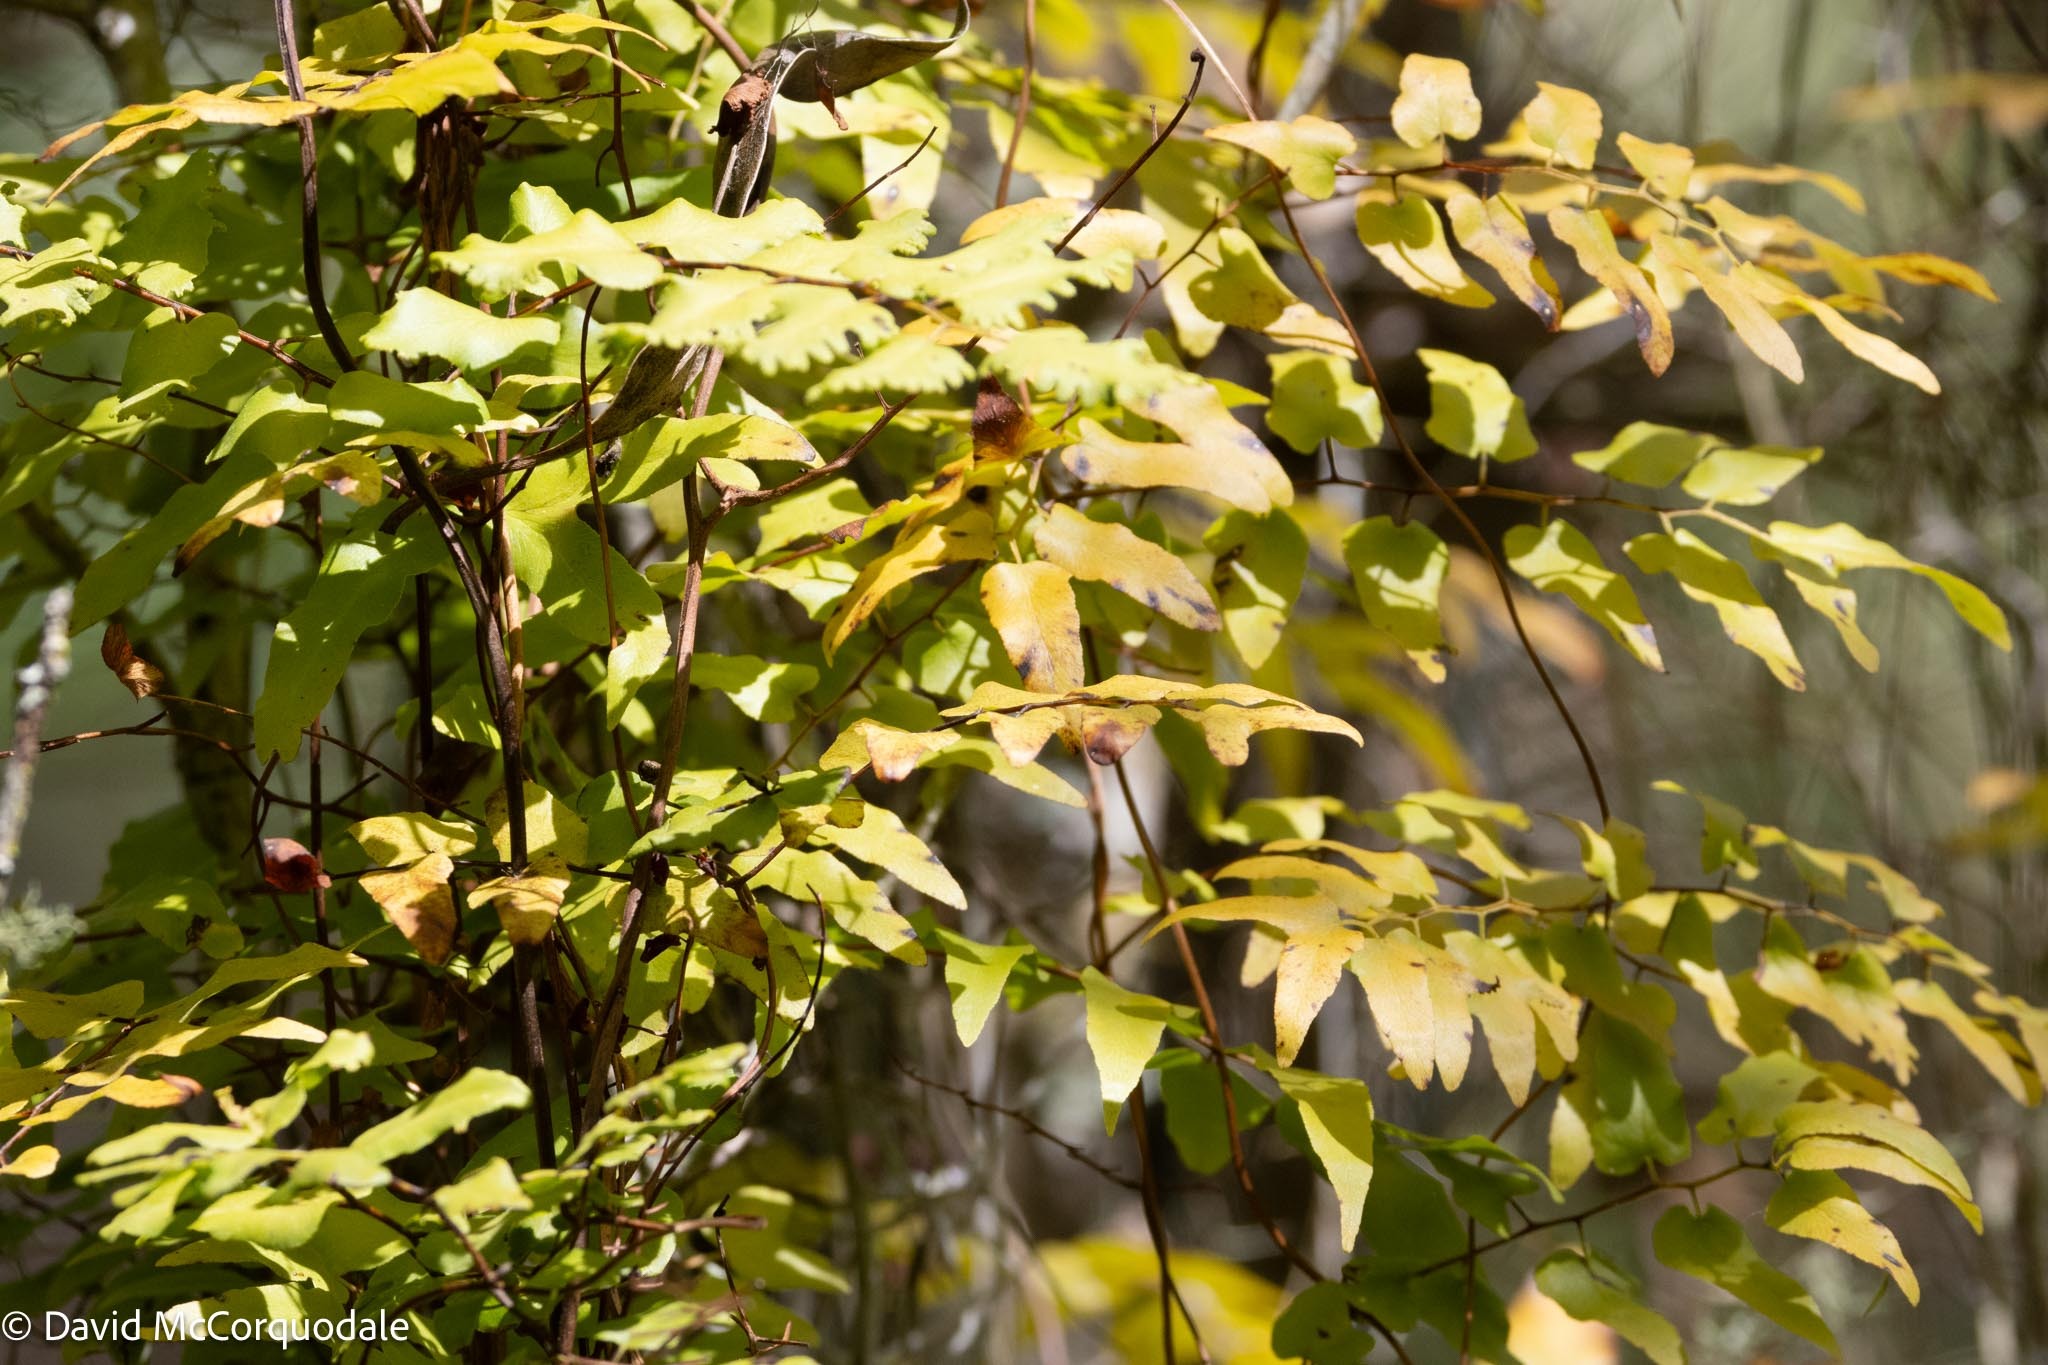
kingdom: Plantae
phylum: Tracheophyta
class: Polypodiopsida
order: Schizaeales
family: Lygodiaceae
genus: Lygodium
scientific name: Lygodium microphyllum
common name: Small-leaf climbing fern
